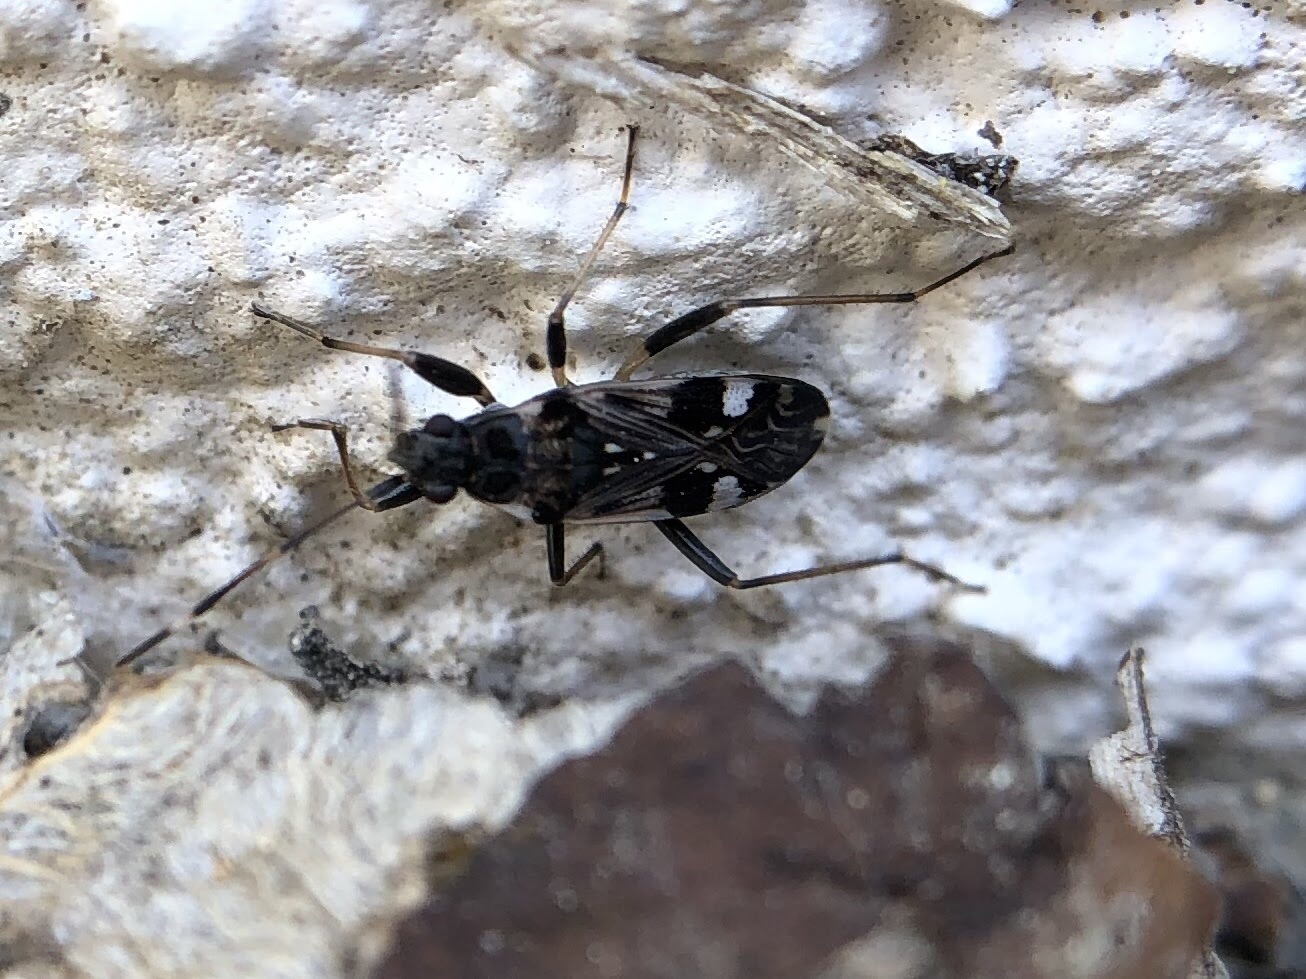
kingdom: Animalia
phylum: Arthropoda
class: Insecta
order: Hemiptera
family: Rhyparochromidae
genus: Beosus
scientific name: Beosus maritimus
